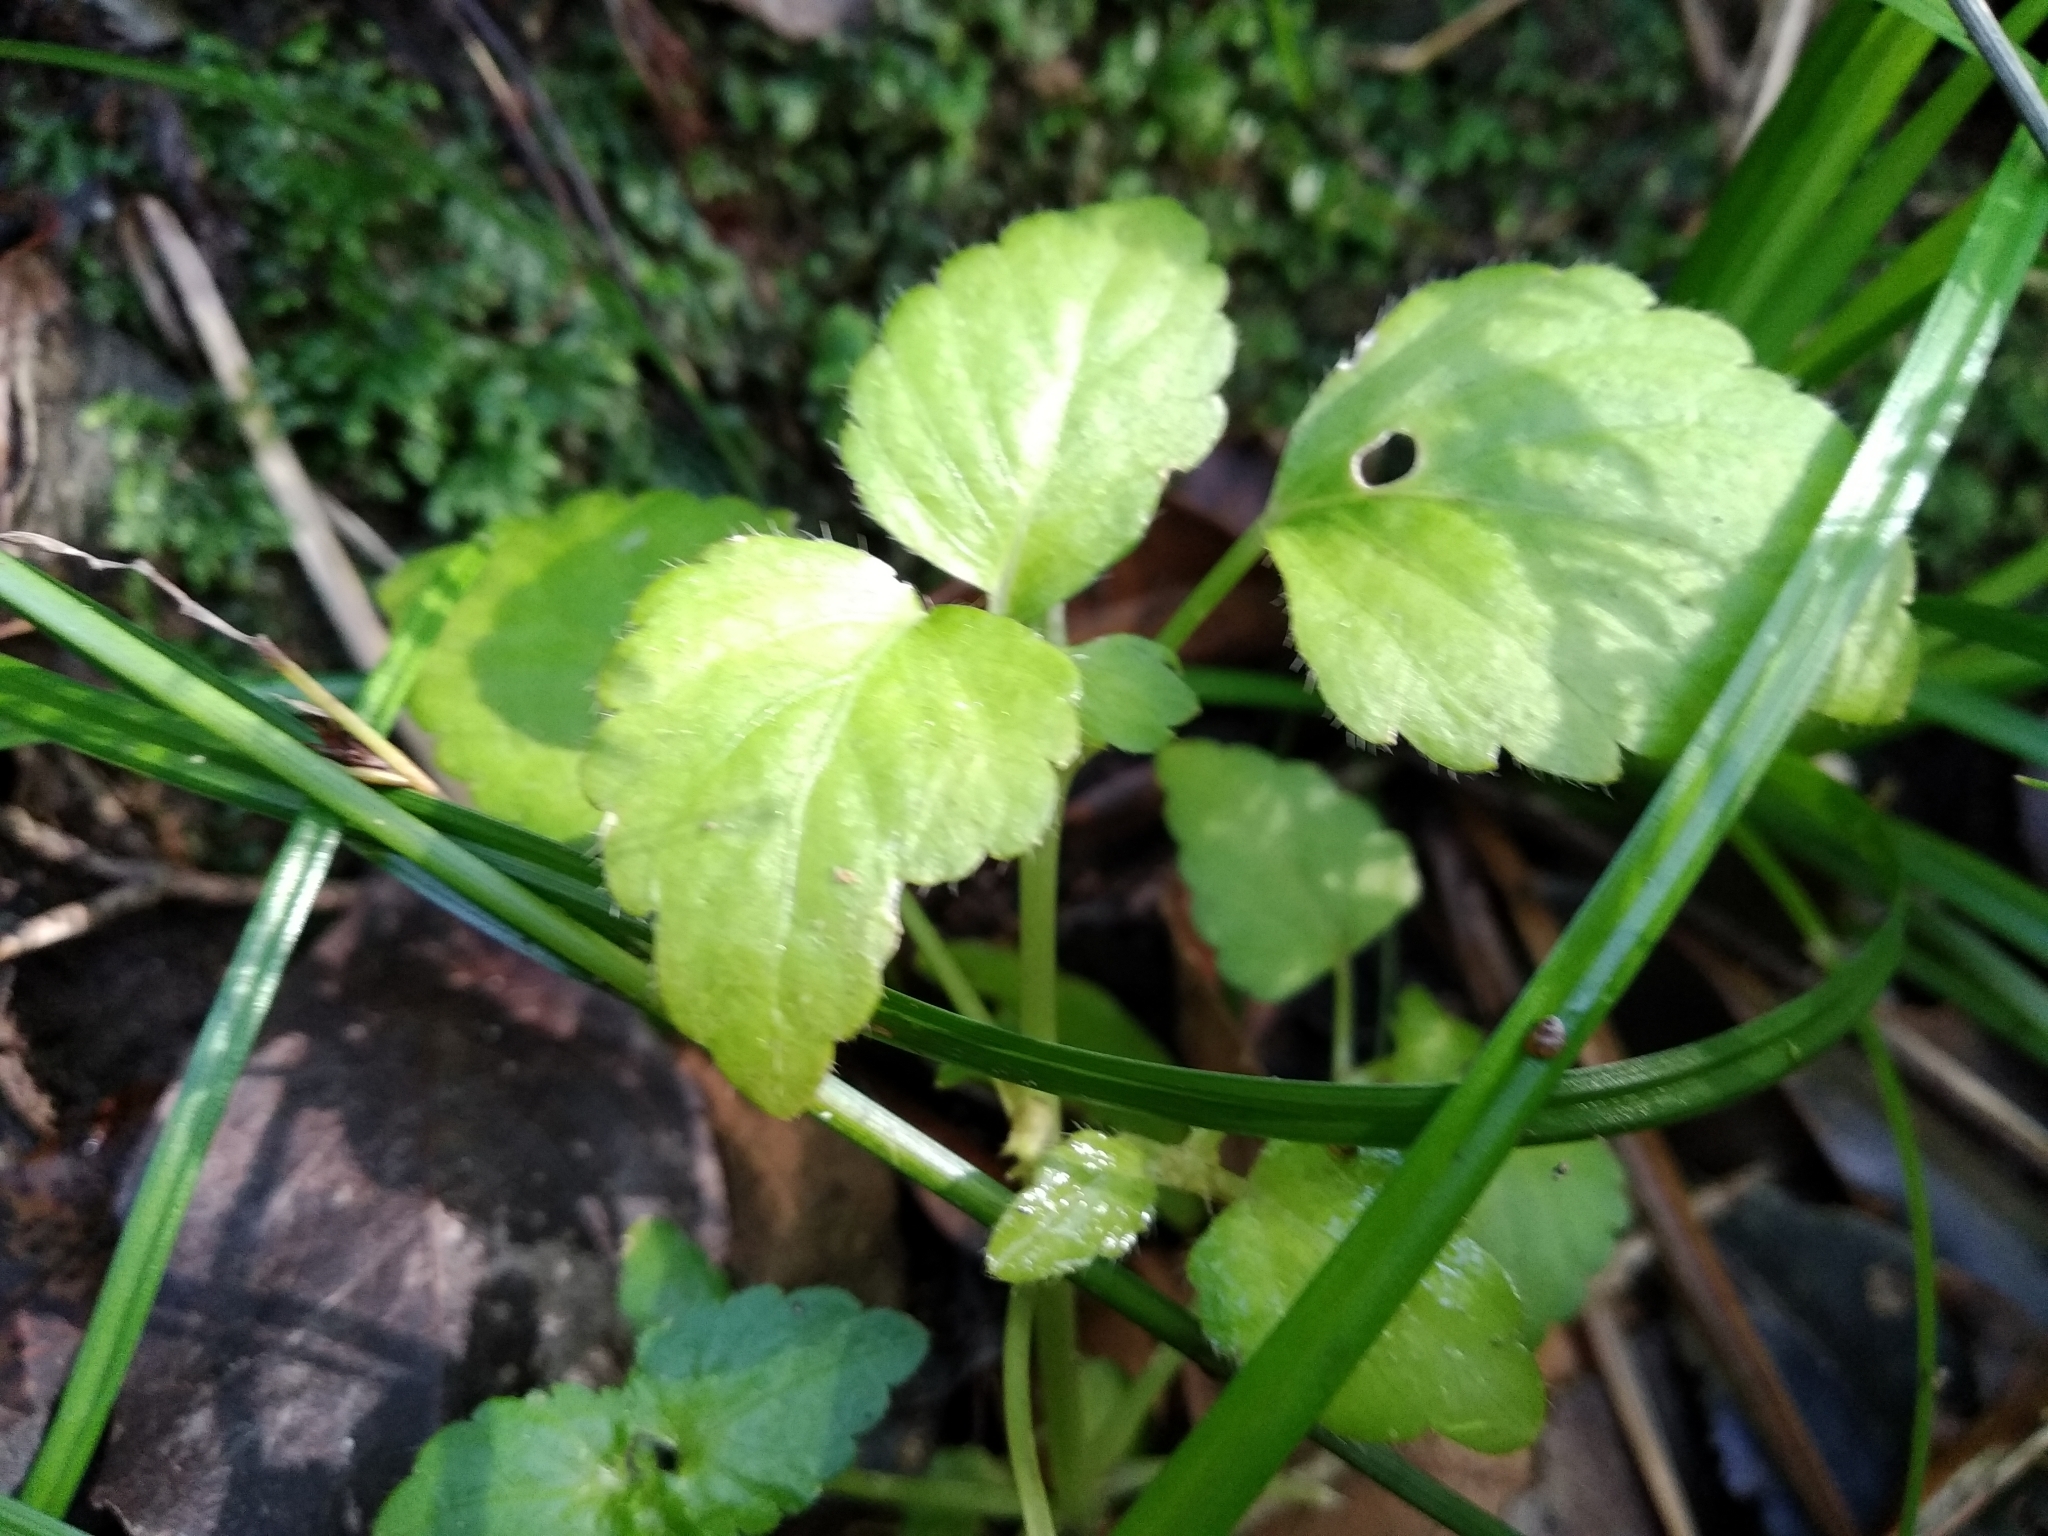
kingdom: Plantae
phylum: Tracheophyta
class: Magnoliopsida
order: Malpighiales
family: Euphorbiaceae
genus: Leidesia
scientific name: Leidesia procumbens
